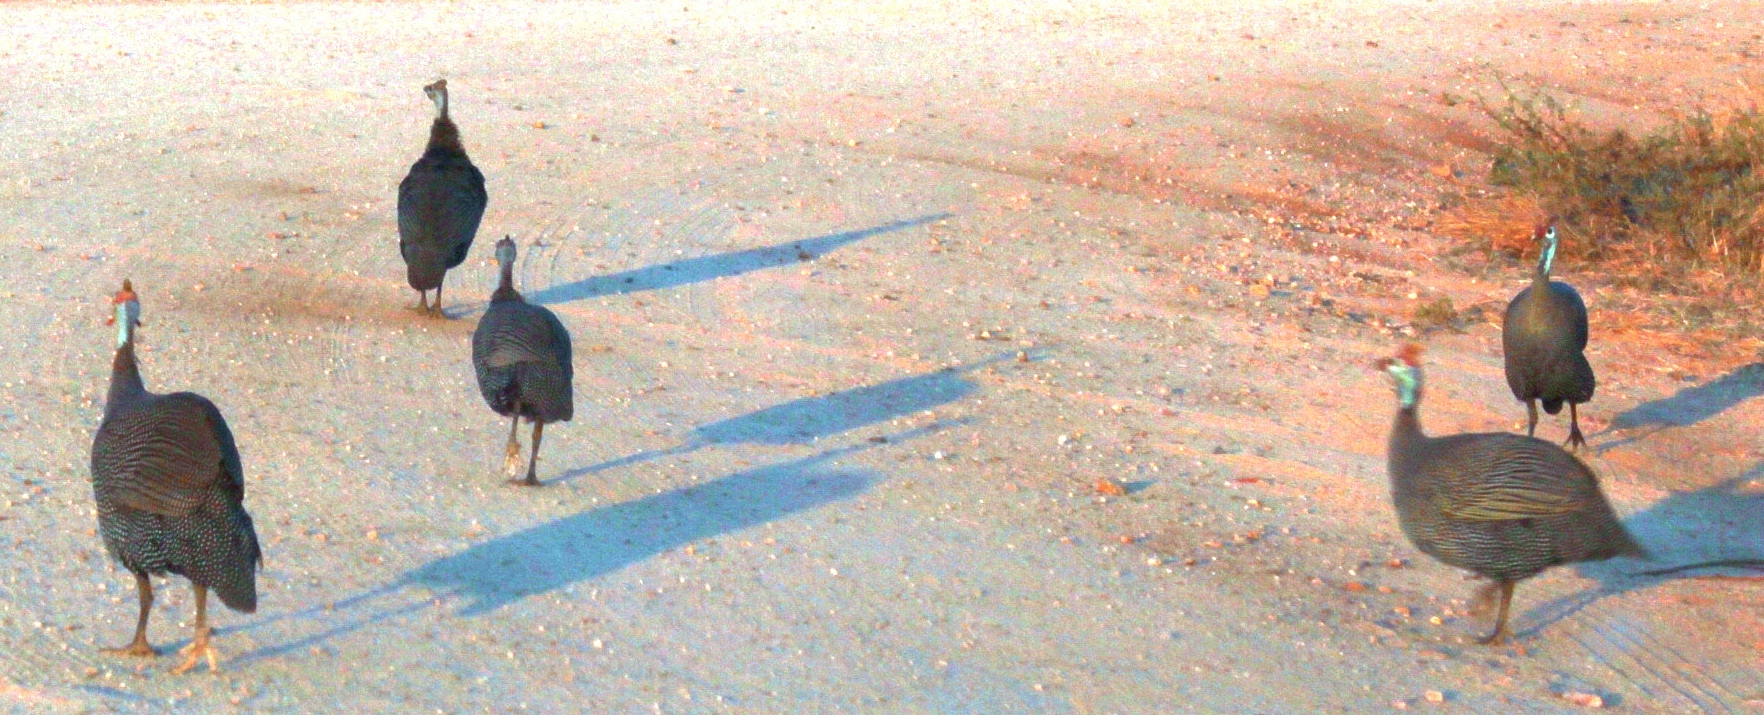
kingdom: Animalia
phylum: Chordata
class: Aves
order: Galliformes
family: Numididae
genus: Numida
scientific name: Numida meleagris
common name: Helmeted guineafowl
